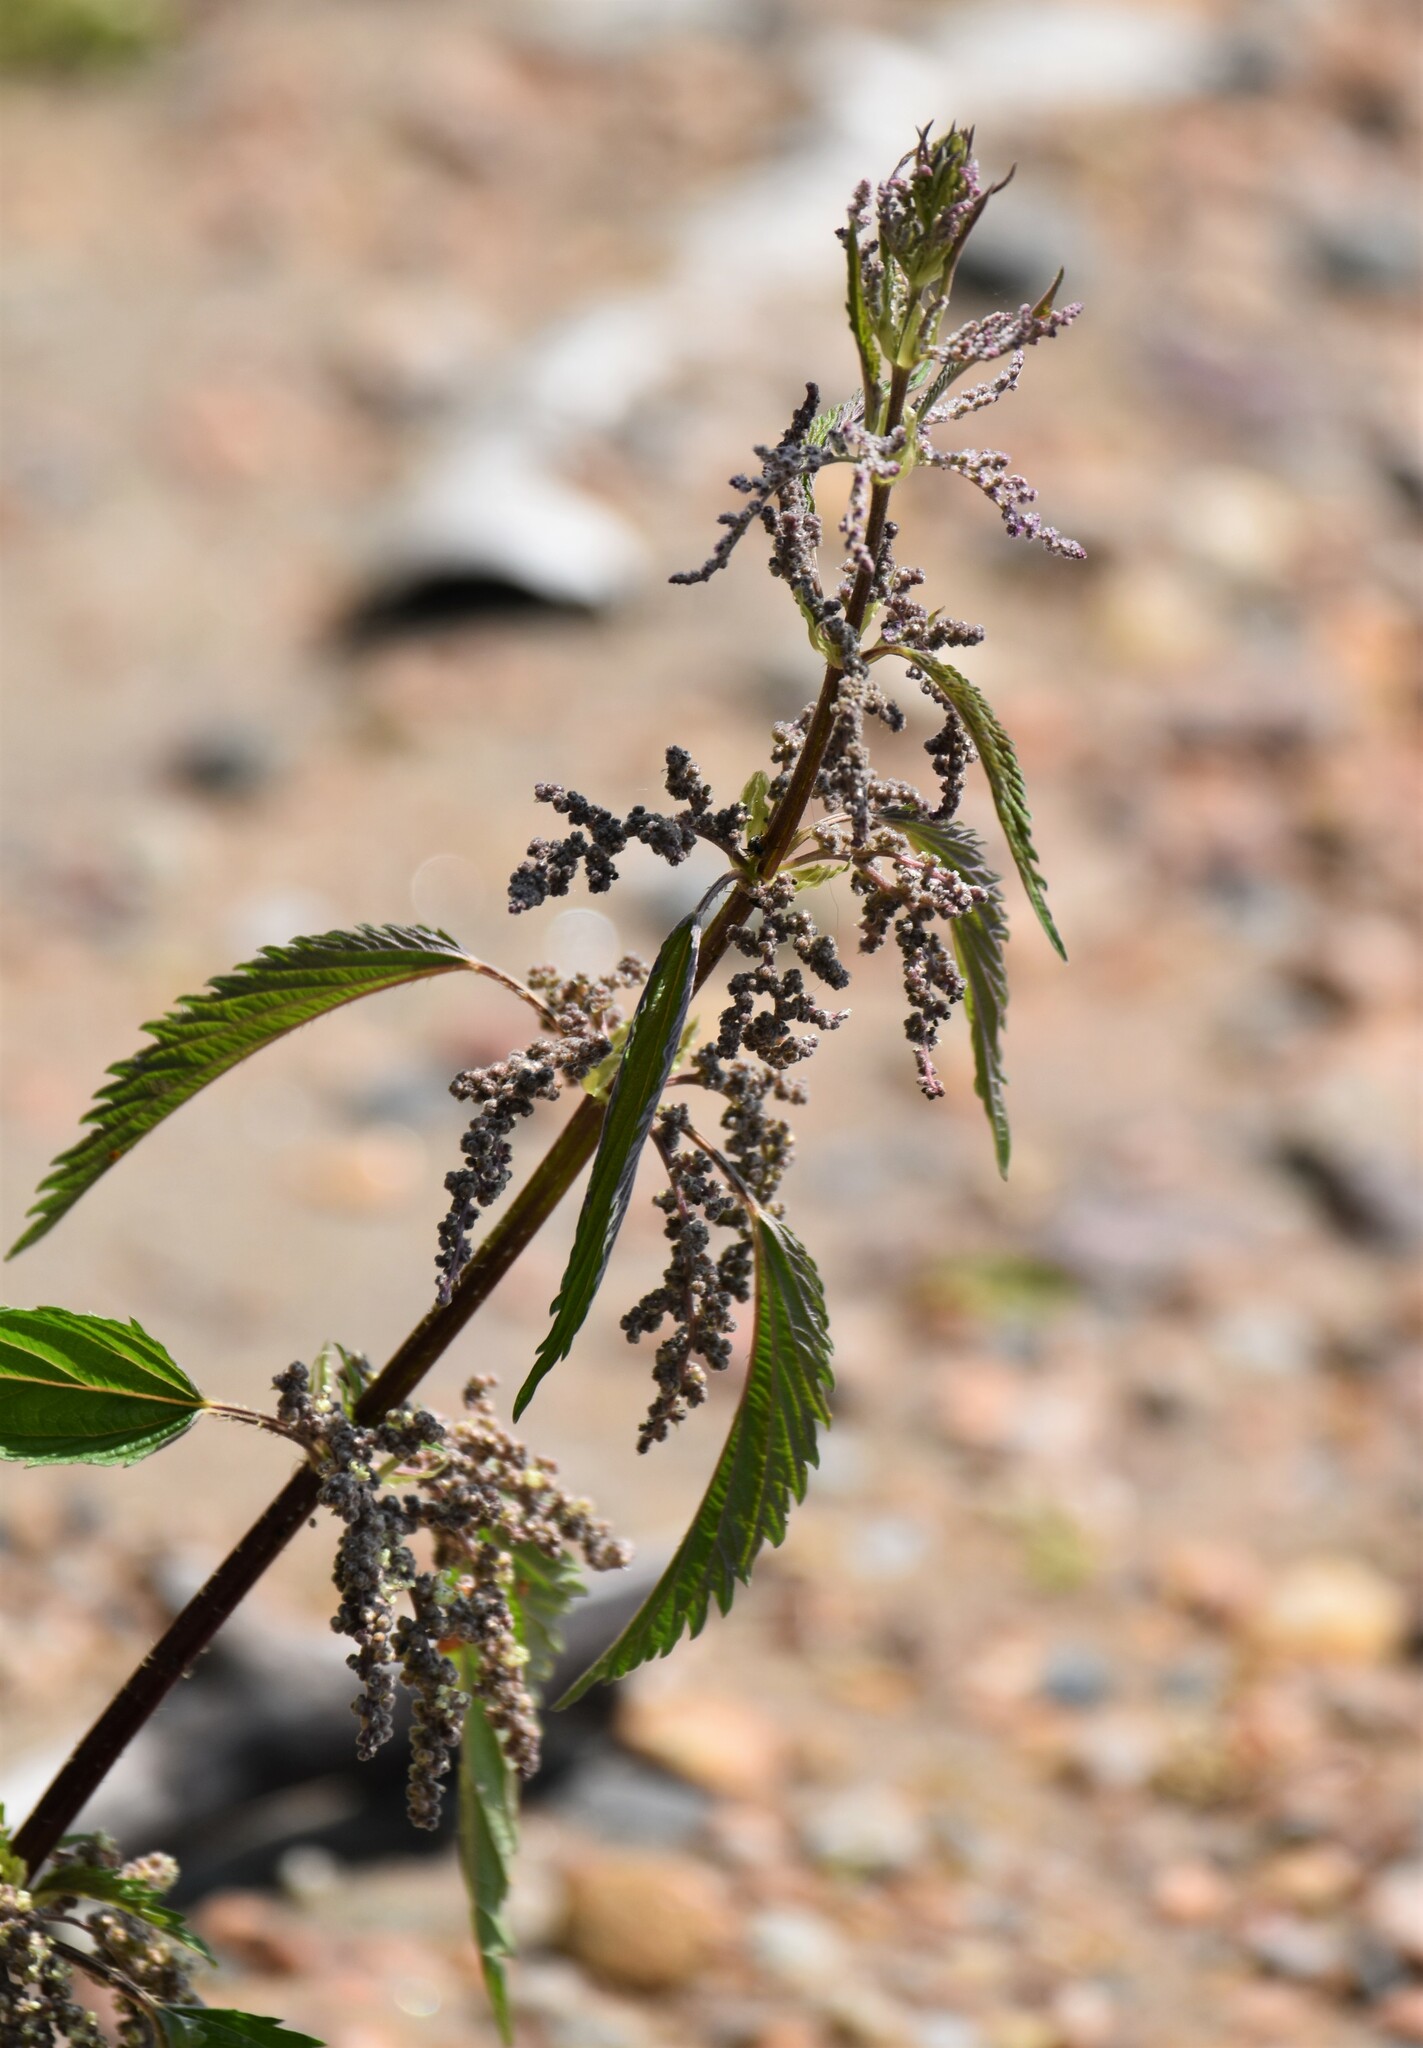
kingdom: Plantae
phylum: Tracheophyta
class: Magnoliopsida
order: Rosales
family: Urticaceae
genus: Urtica
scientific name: Urtica gracilis
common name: Slender stinging nettle
